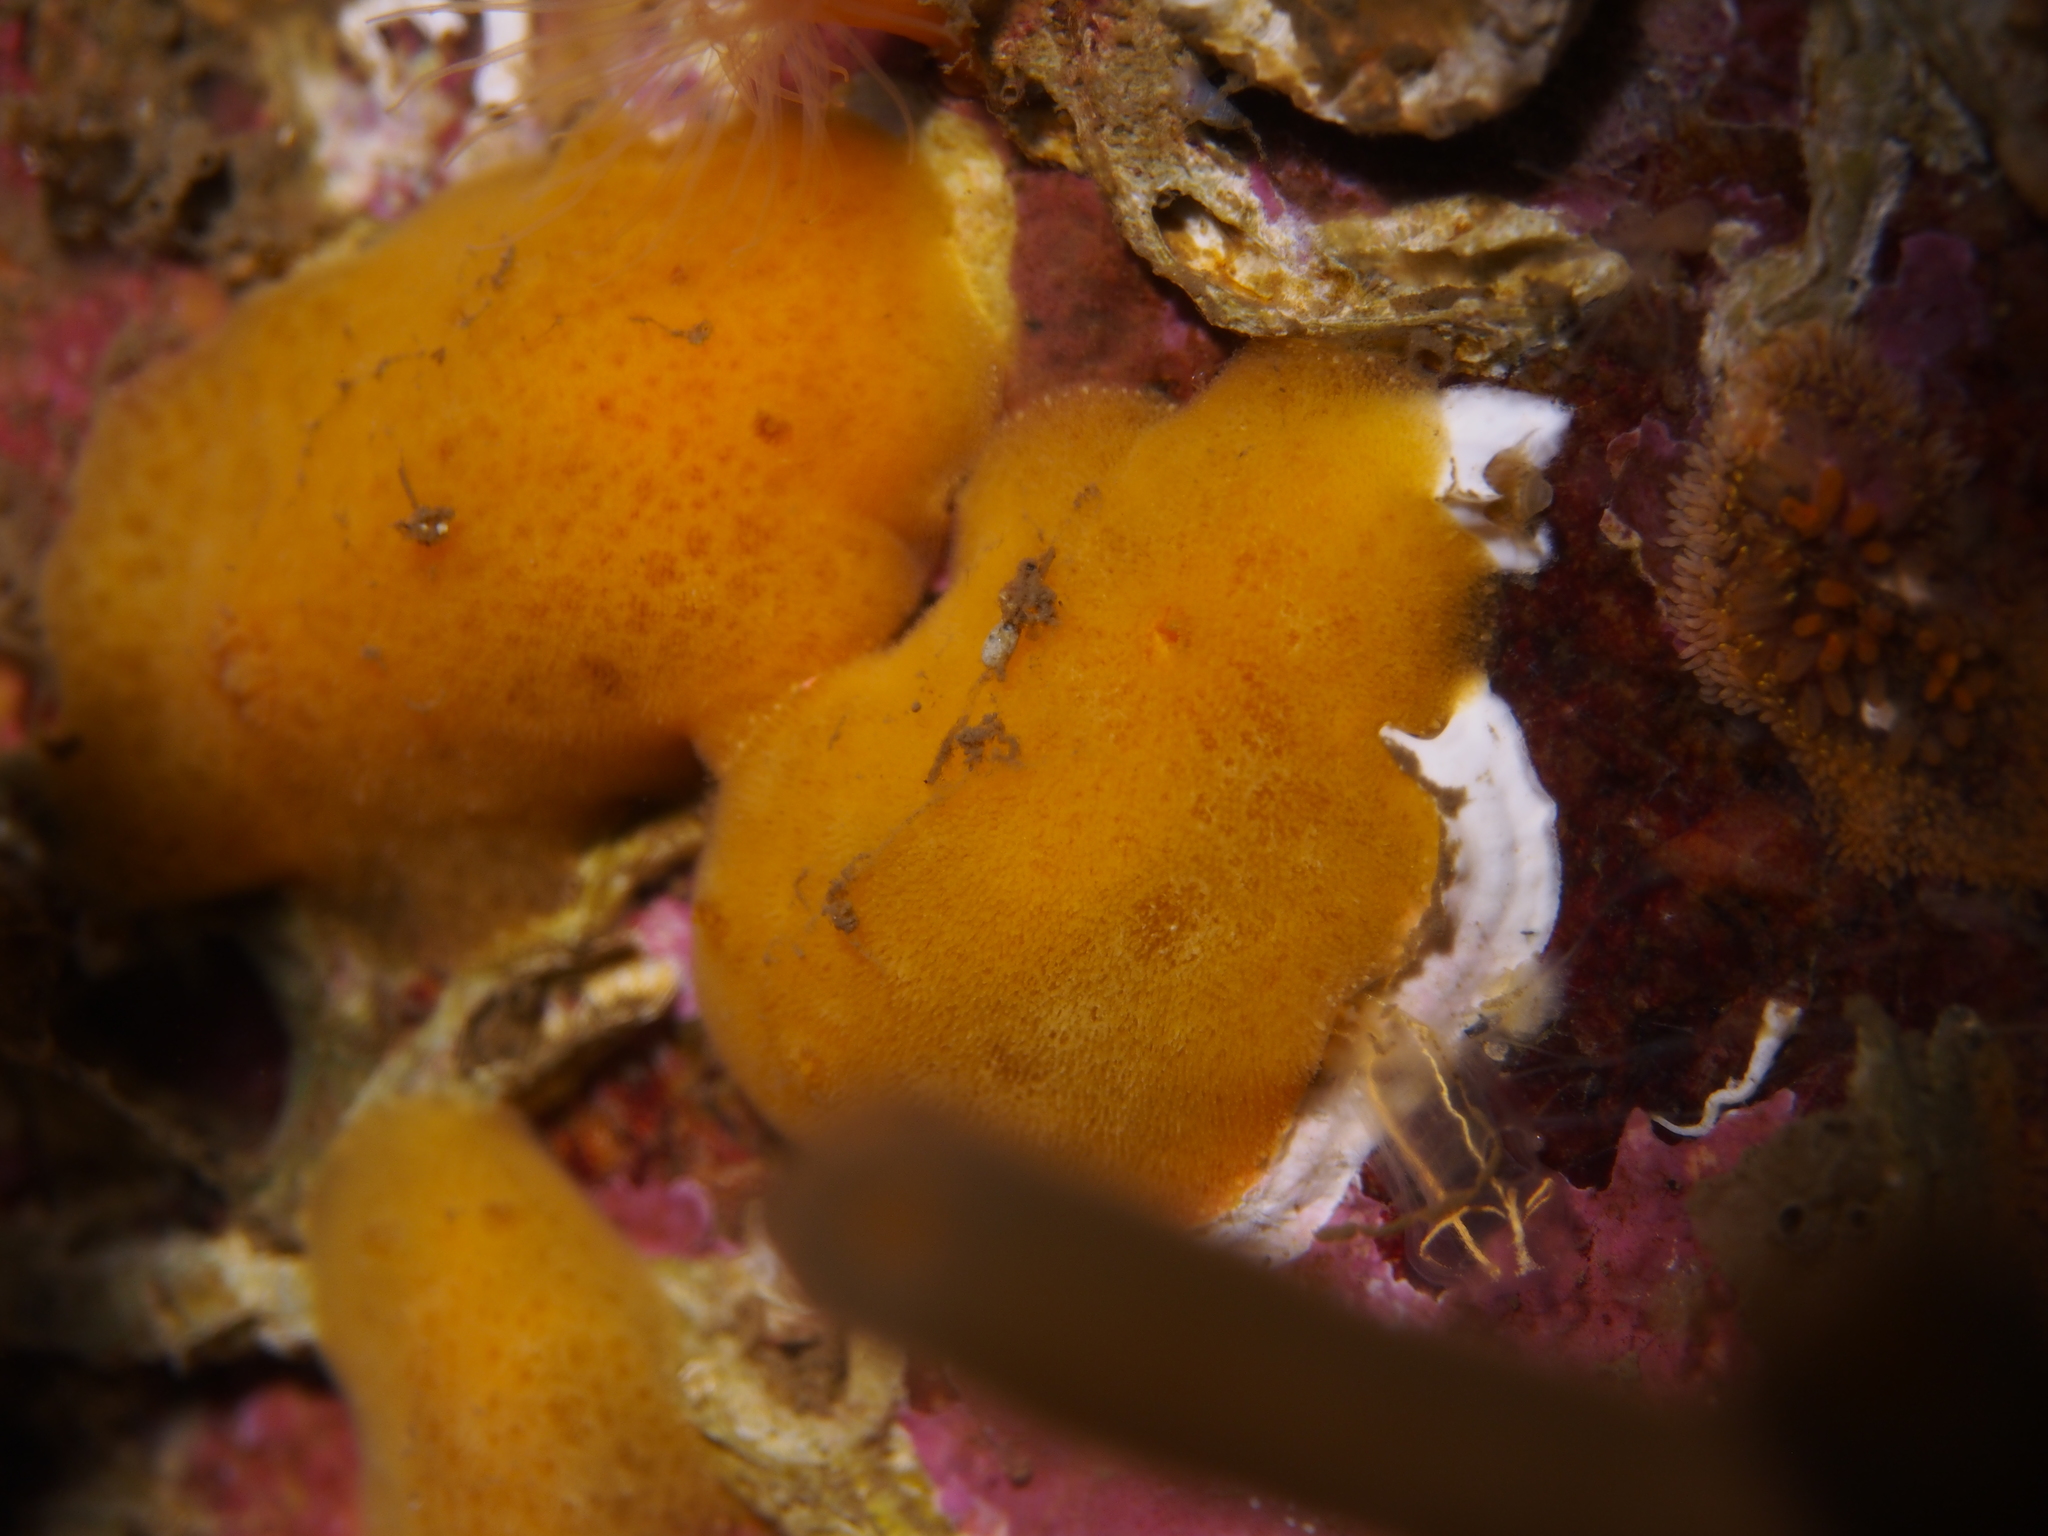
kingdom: Animalia
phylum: Mollusca
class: Gastropoda
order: Nudibranchia
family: Discodorididae
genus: Jorunna
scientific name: Jorunna tomentosa
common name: Grey sea slug
